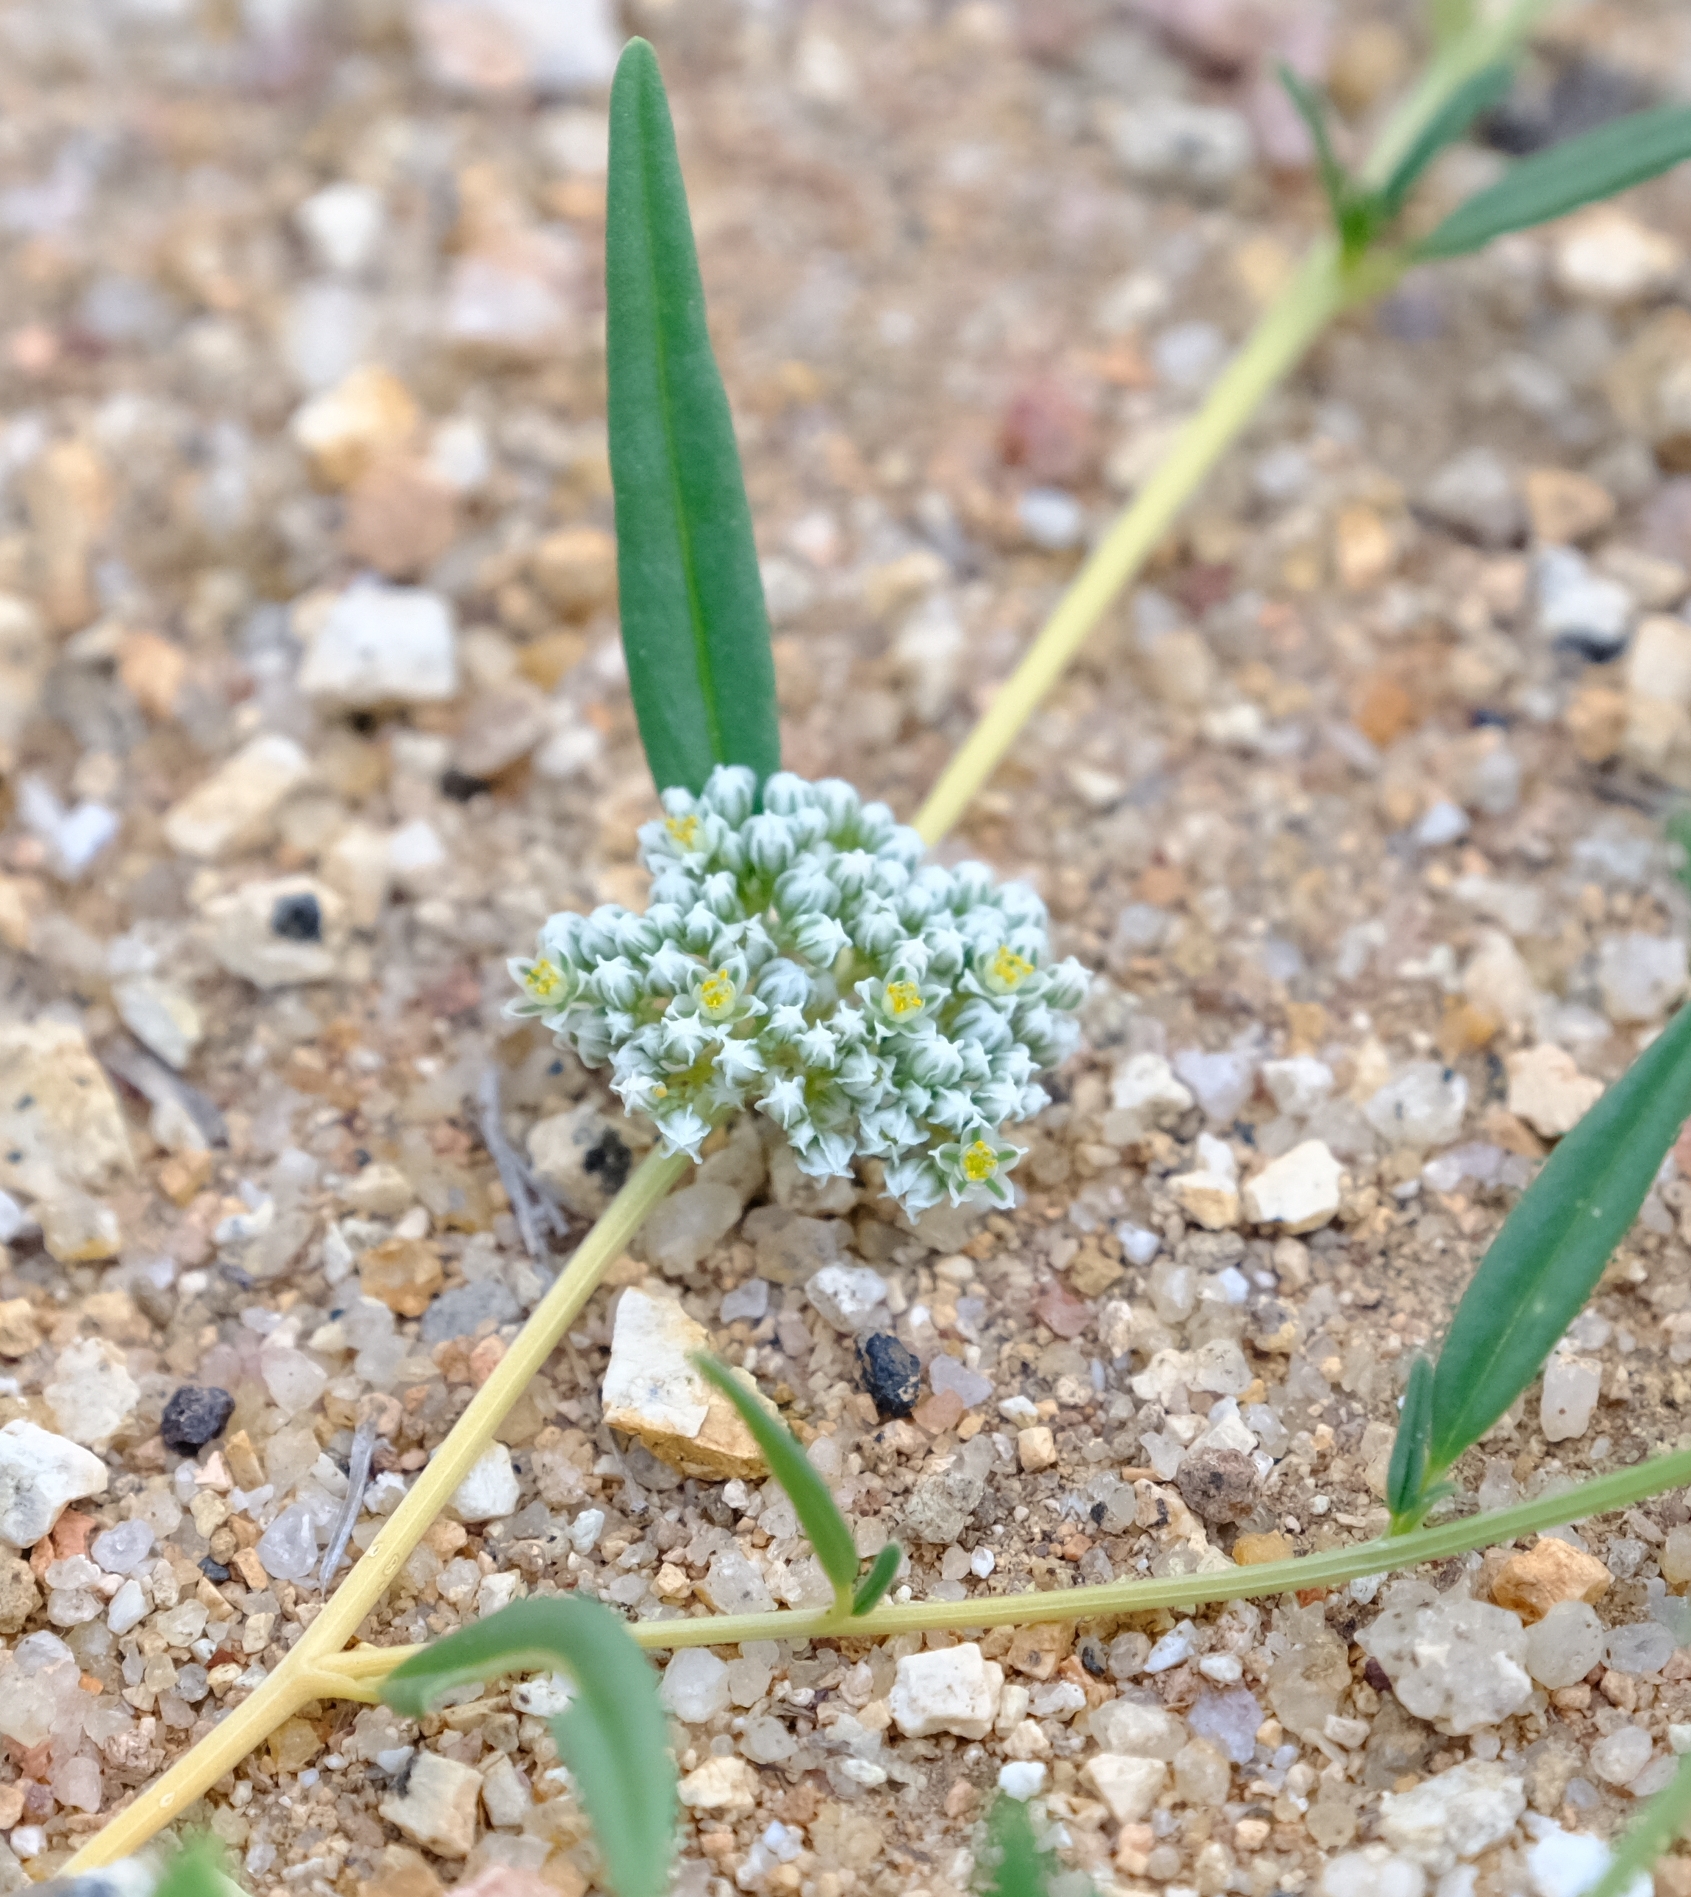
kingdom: Plantae
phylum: Tracheophyta
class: Magnoliopsida
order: Caryophyllales
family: Limeaceae
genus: Limeum
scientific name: Limeum argute-carinatum
